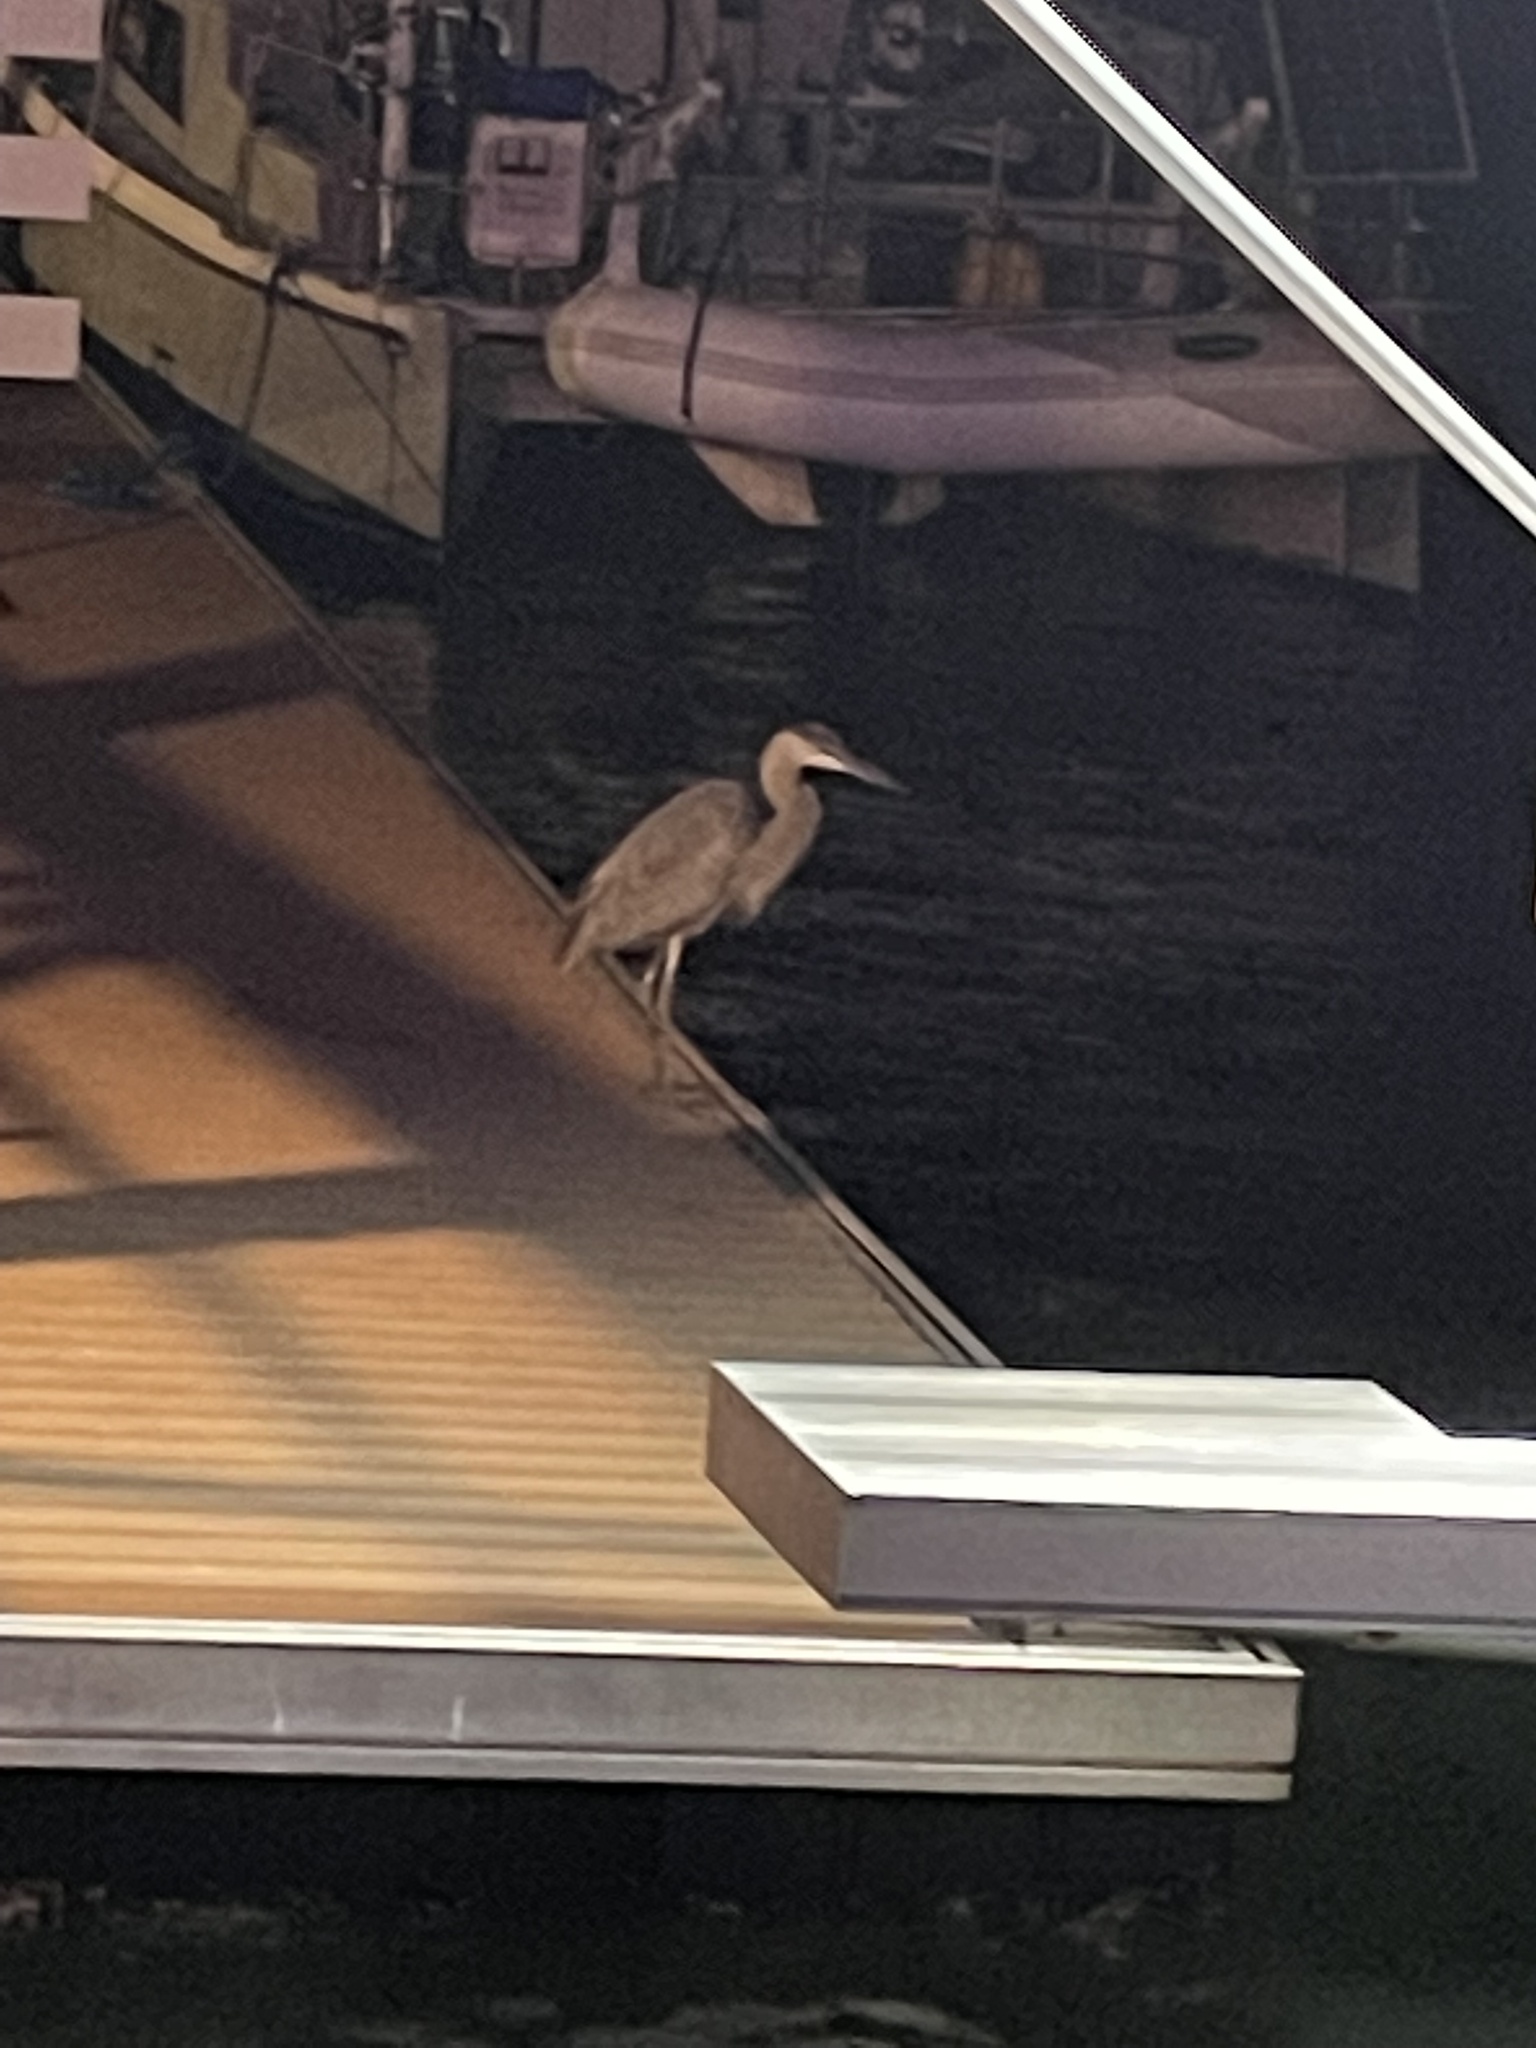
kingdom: Animalia
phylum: Chordata
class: Aves
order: Pelecaniformes
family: Ardeidae
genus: Ardea
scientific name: Ardea herodias
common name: Great blue heron
